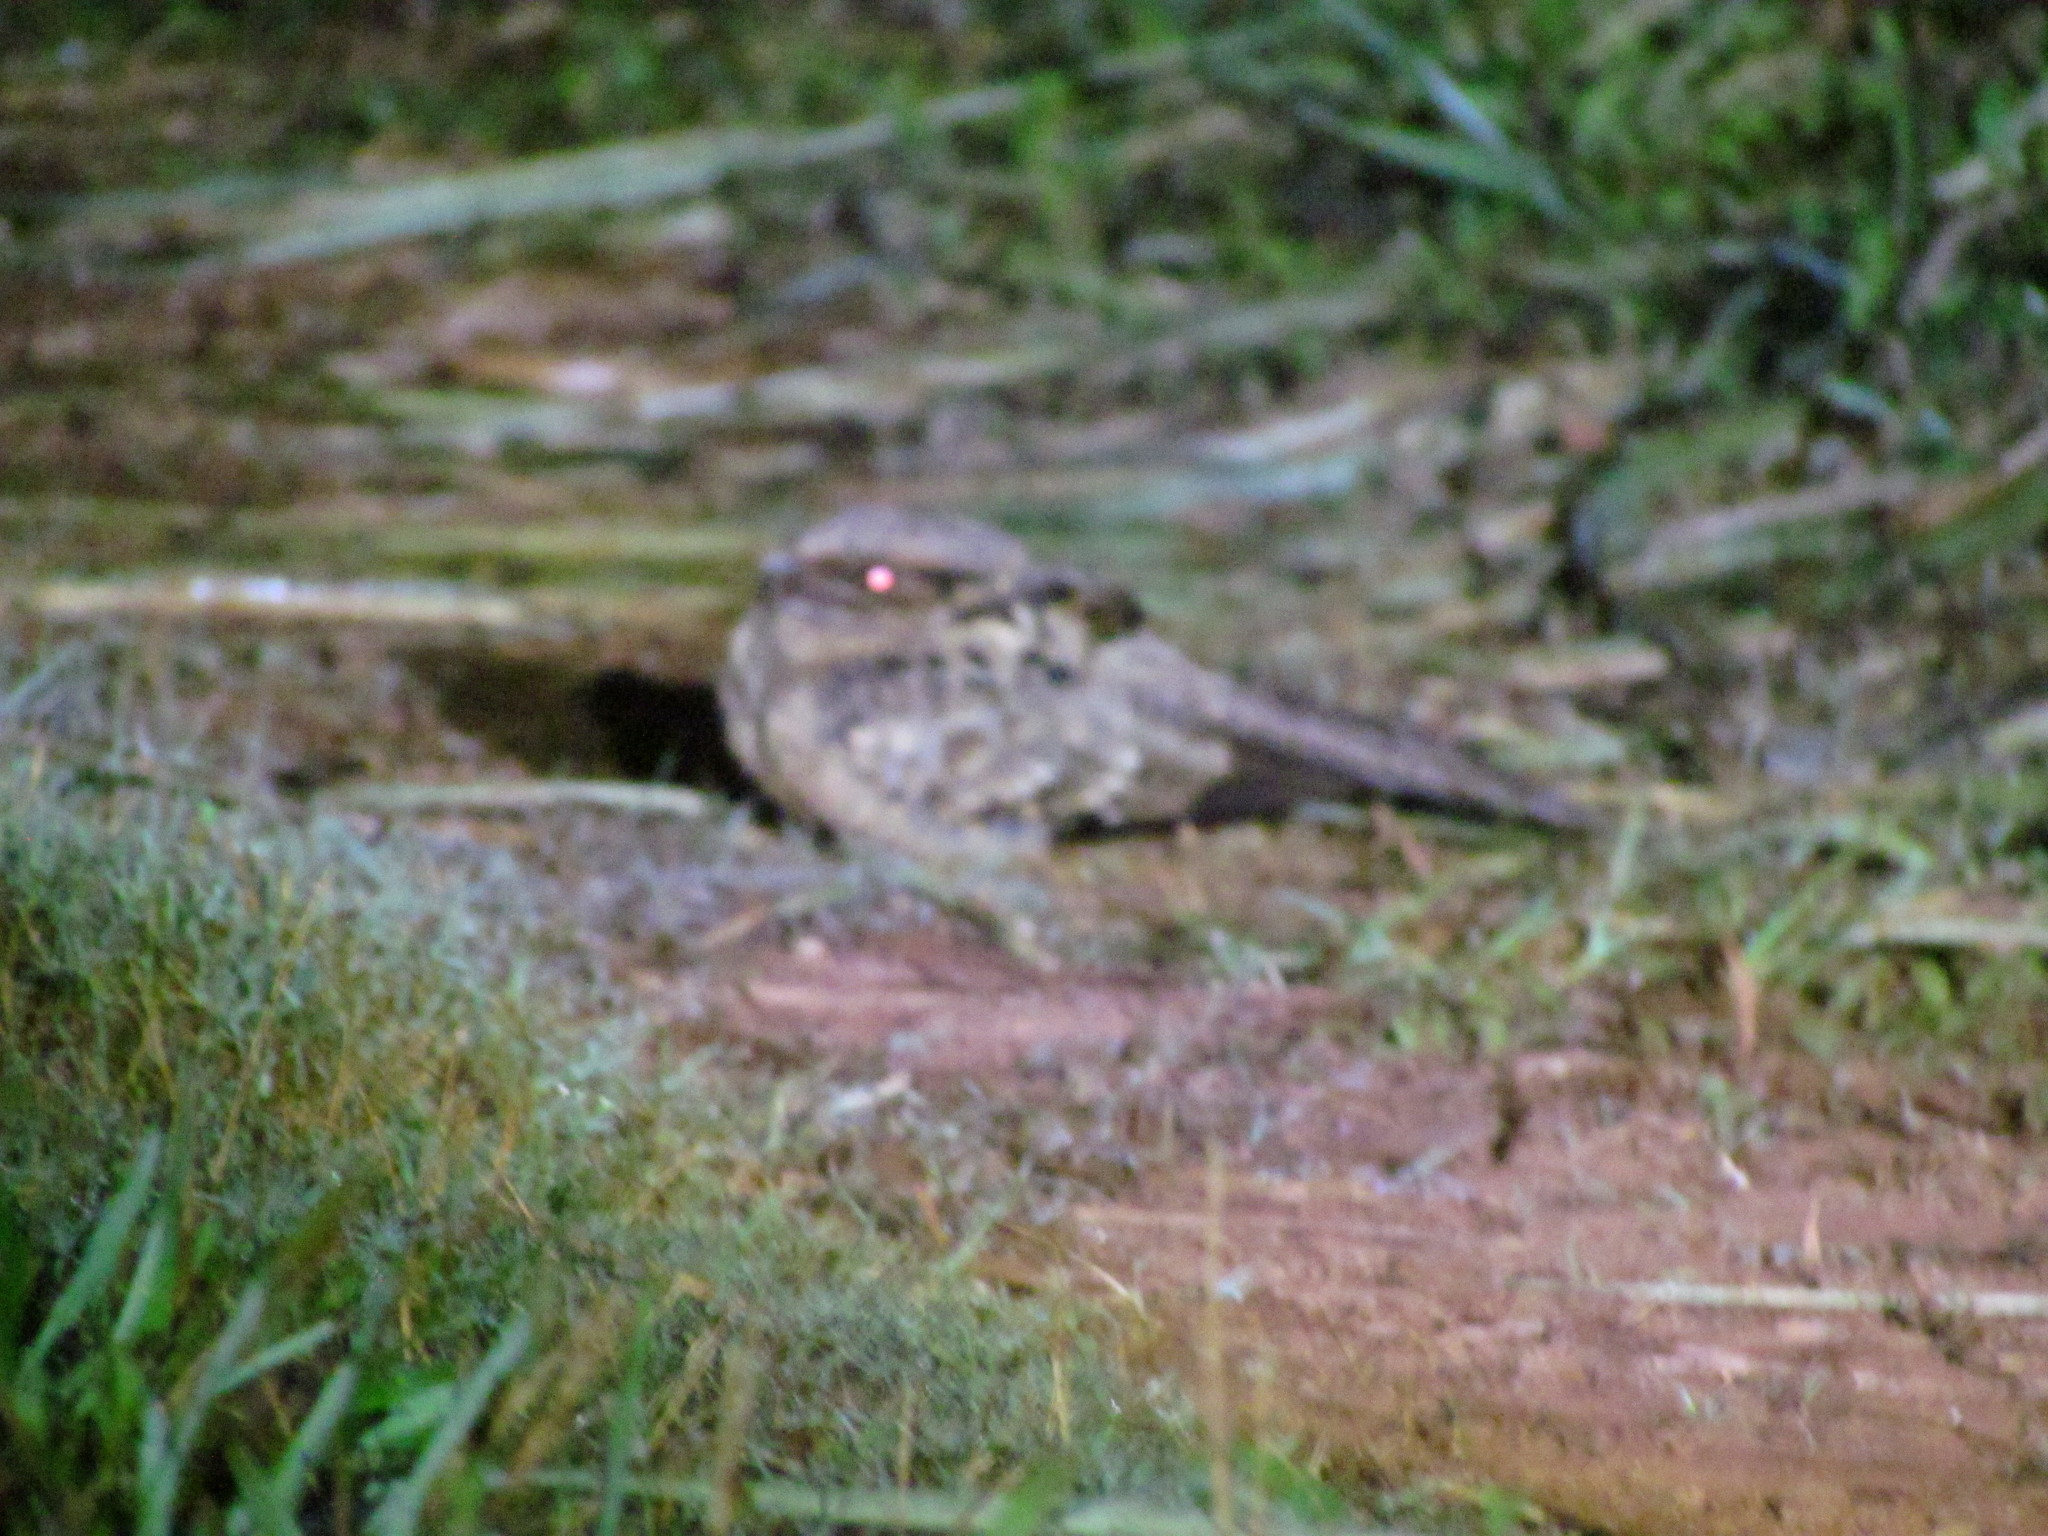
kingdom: Animalia
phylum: Chordata
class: Aves
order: Caprimulgiformes
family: Caprimulgidae
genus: Nyctidromus
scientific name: Nyctidromus albicollis
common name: Pauraque
